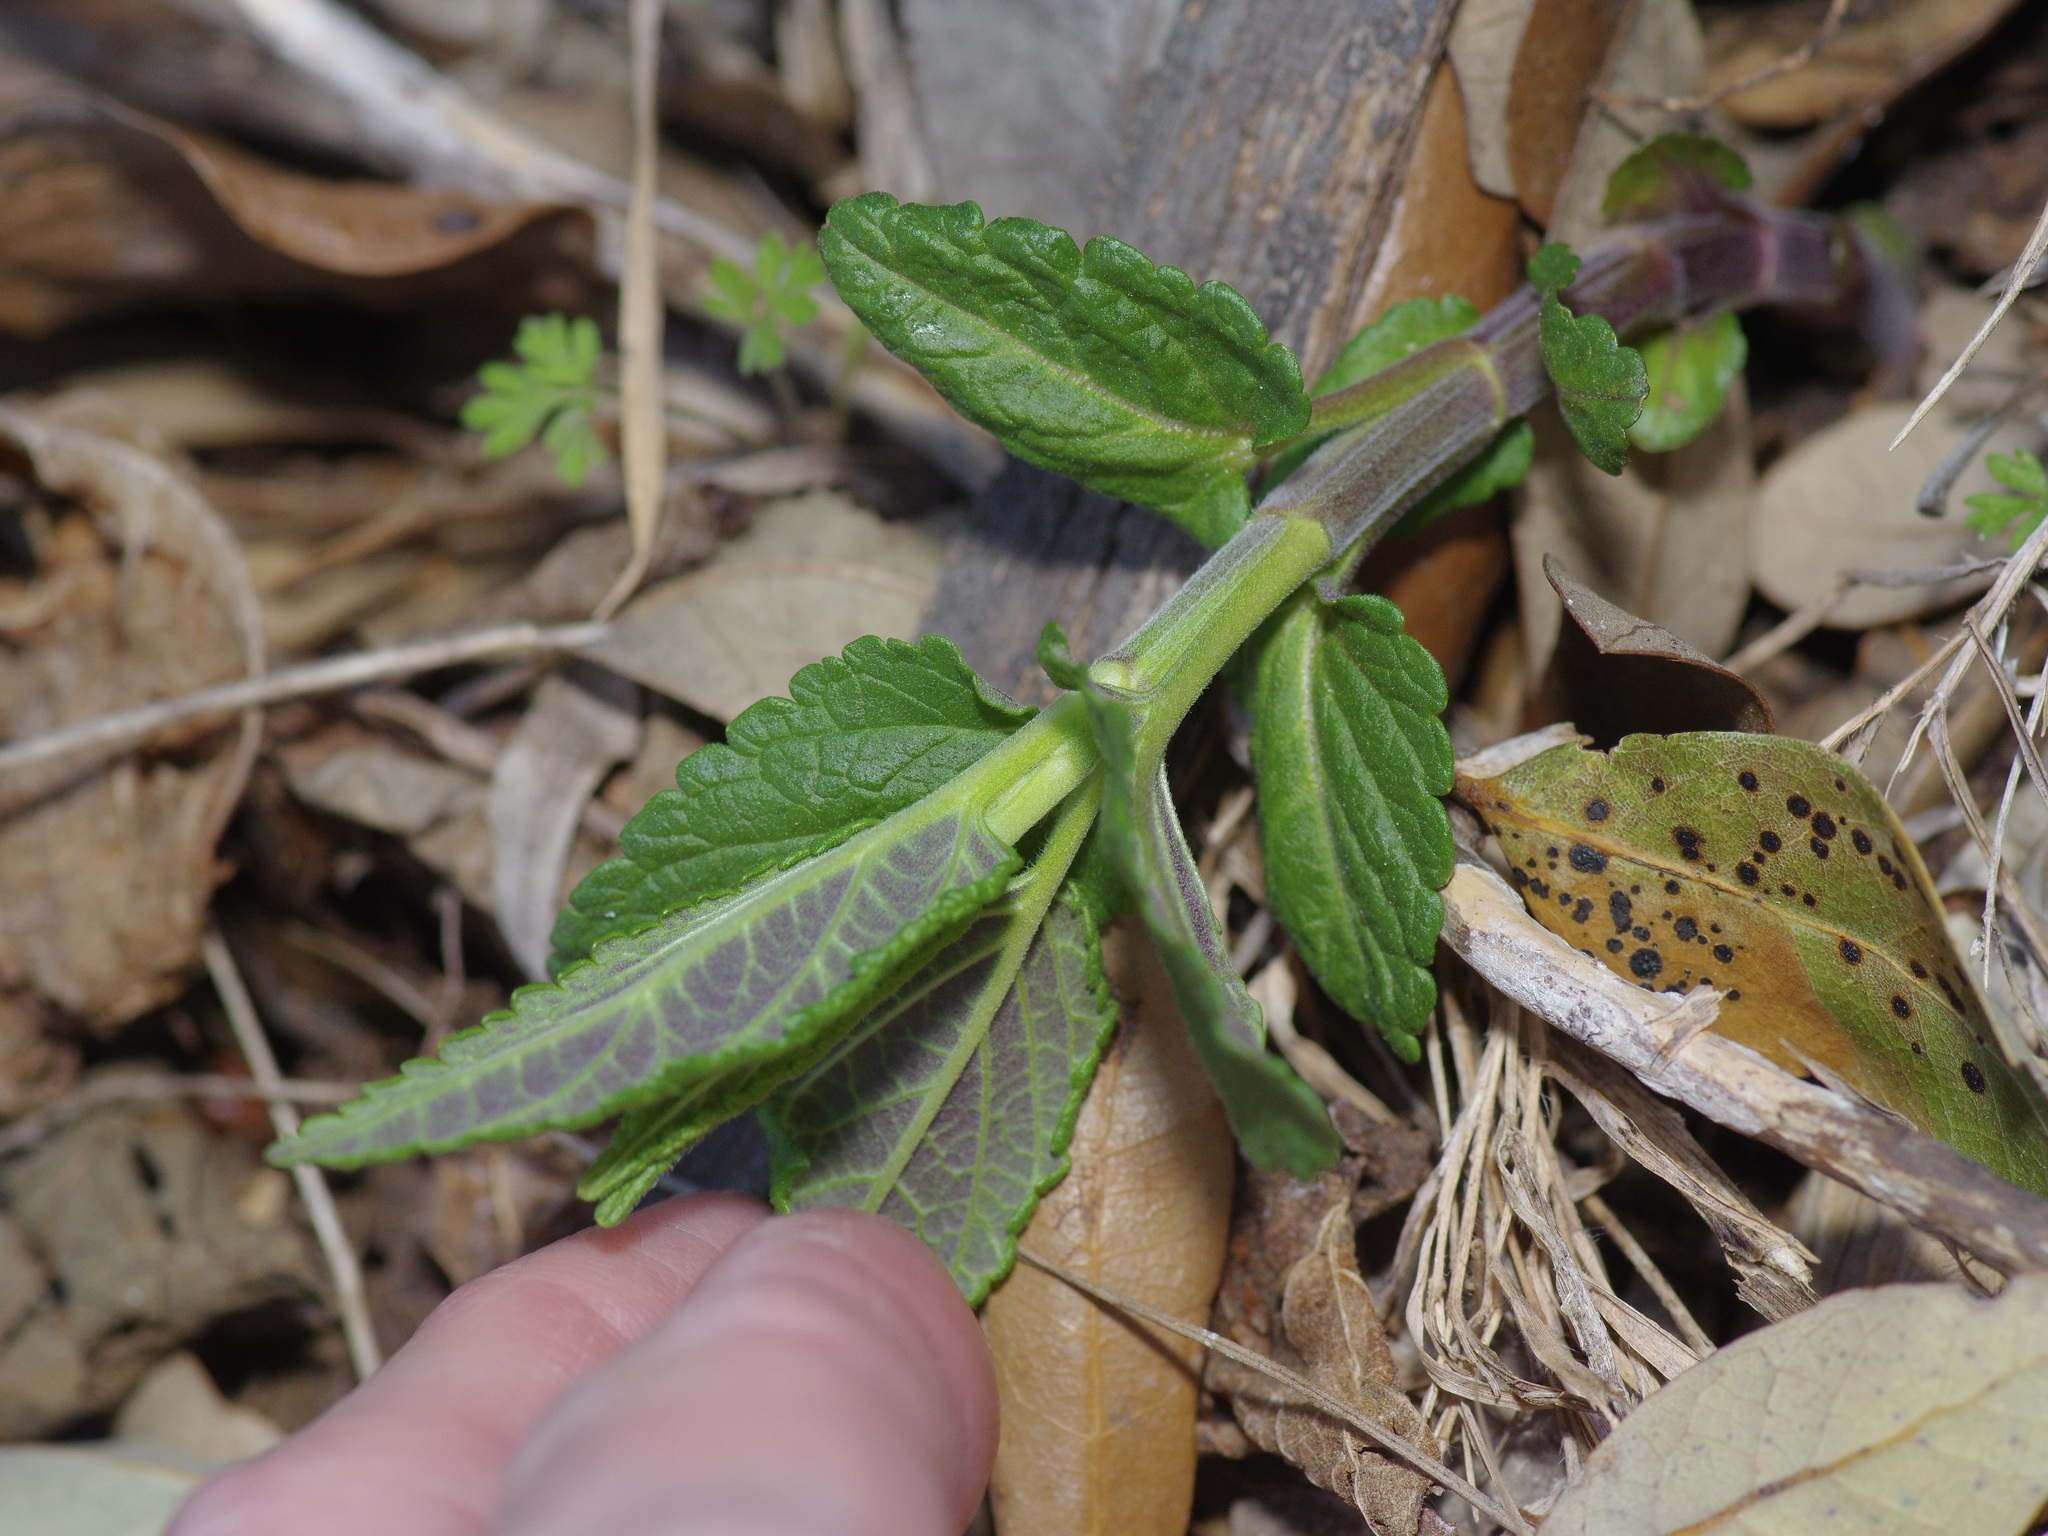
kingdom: Plantae
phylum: Tracheophyta
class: Magnoliopsida
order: Lamiales
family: Lamiaceae
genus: Teucrium
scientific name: Teucrium canadense
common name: American germander
